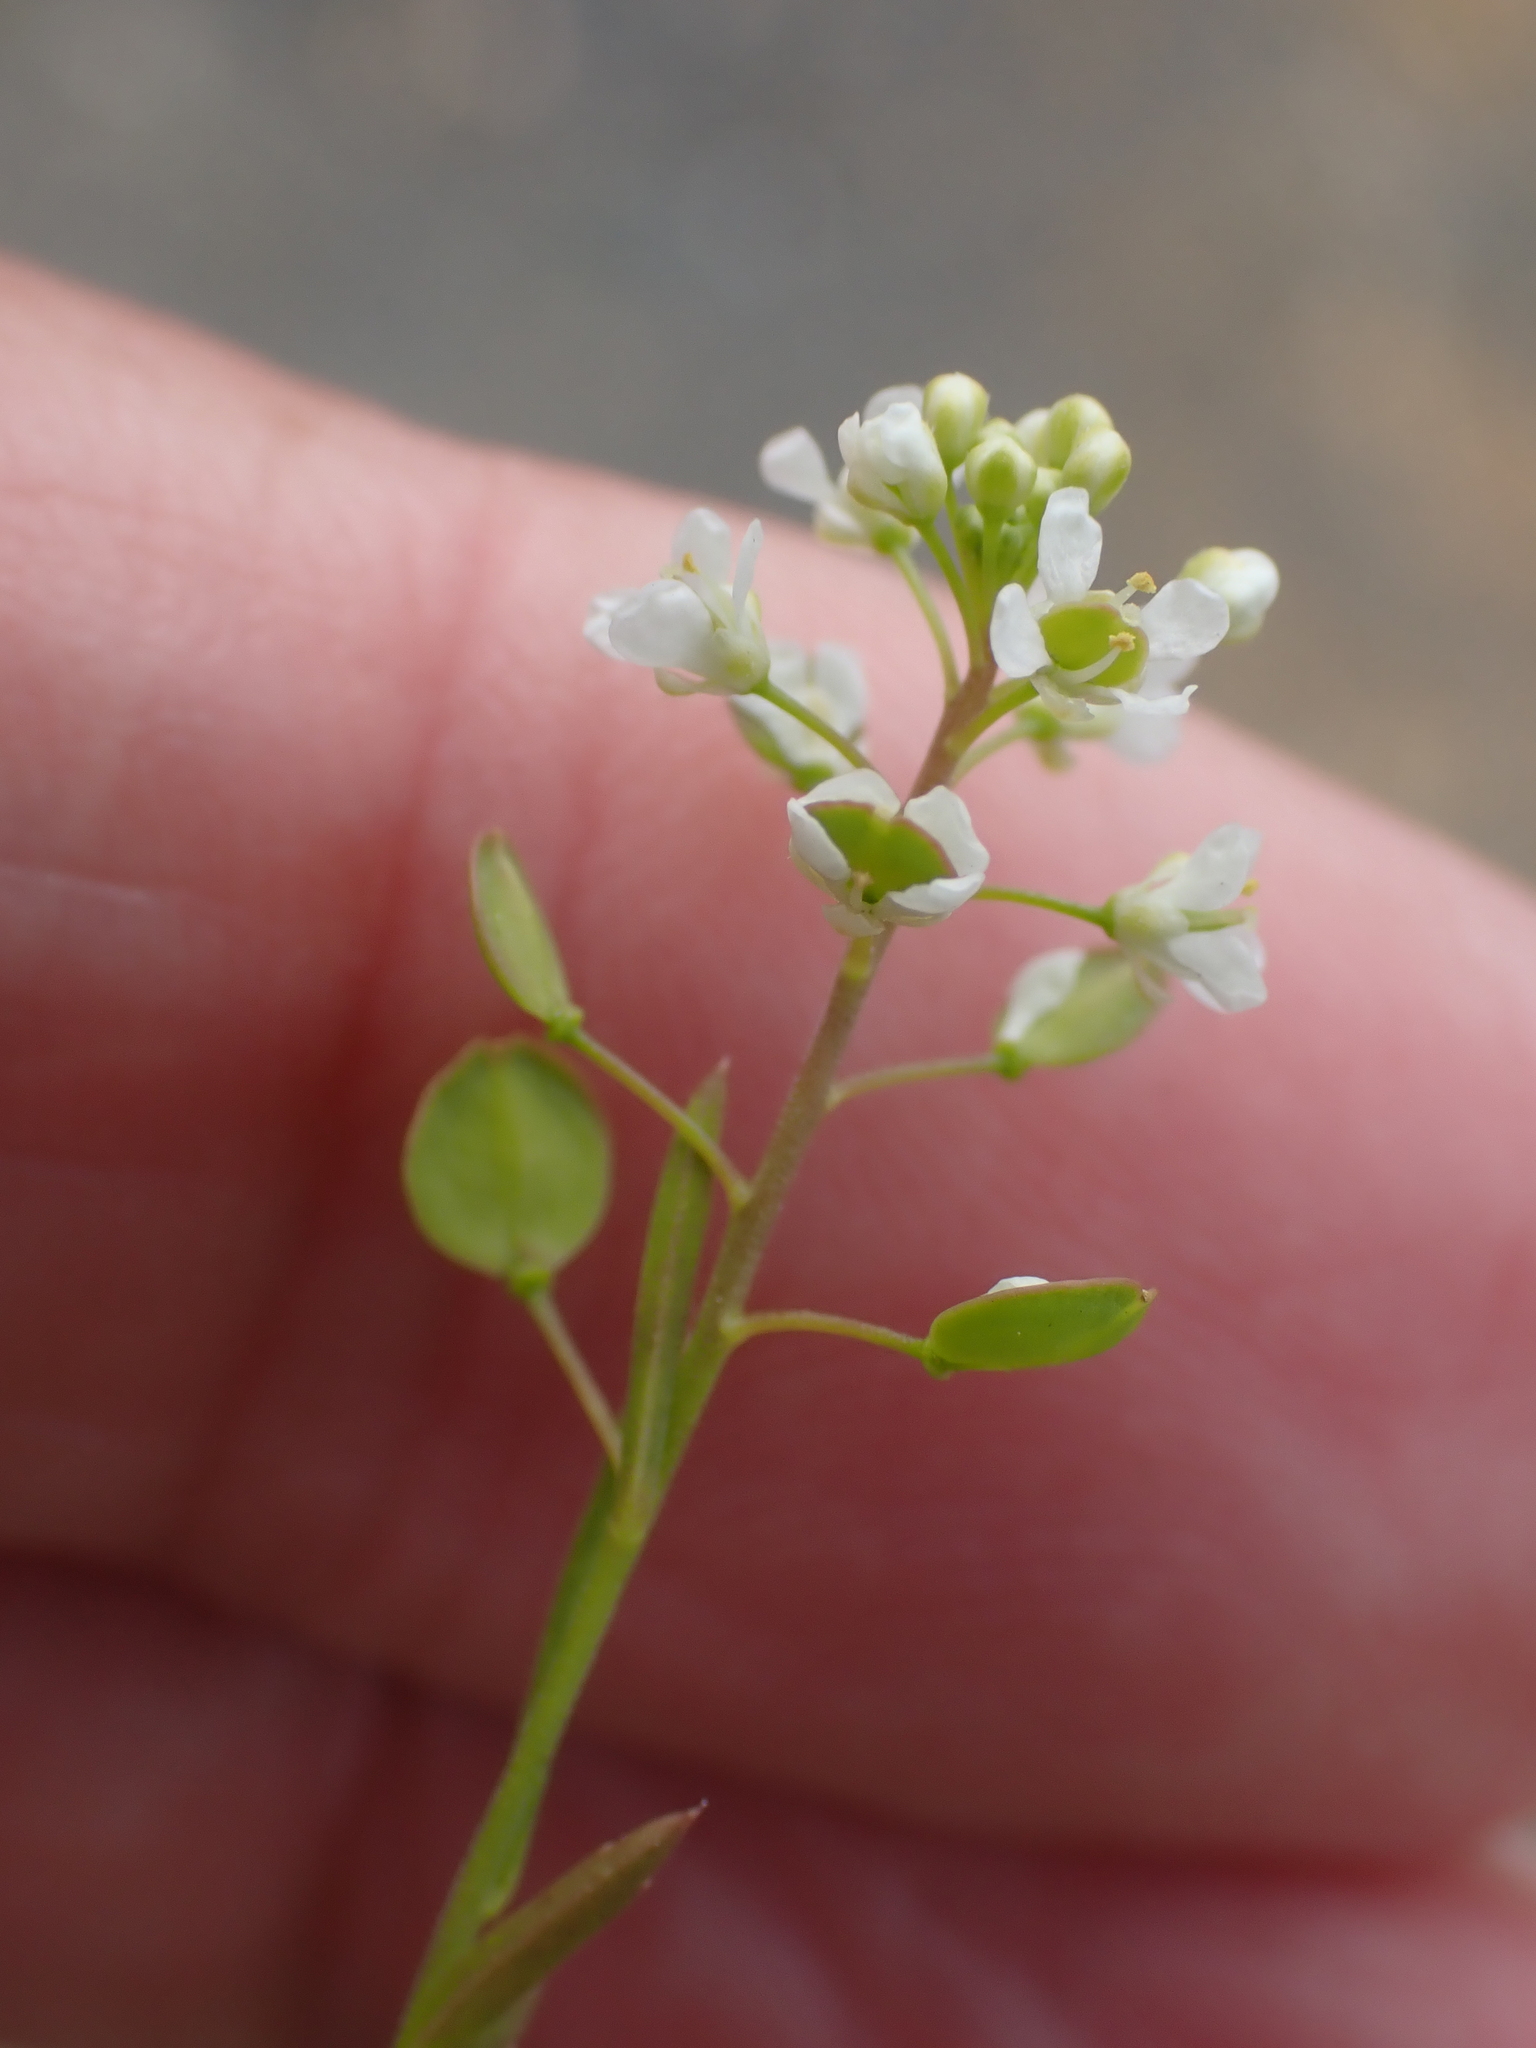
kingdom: Plantae
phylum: Tracheophyta
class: Magnoliopsida
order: Brassicales
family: Brassicaceae
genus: Lepidium
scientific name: Lepidium virginicum
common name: Least pepperwort
